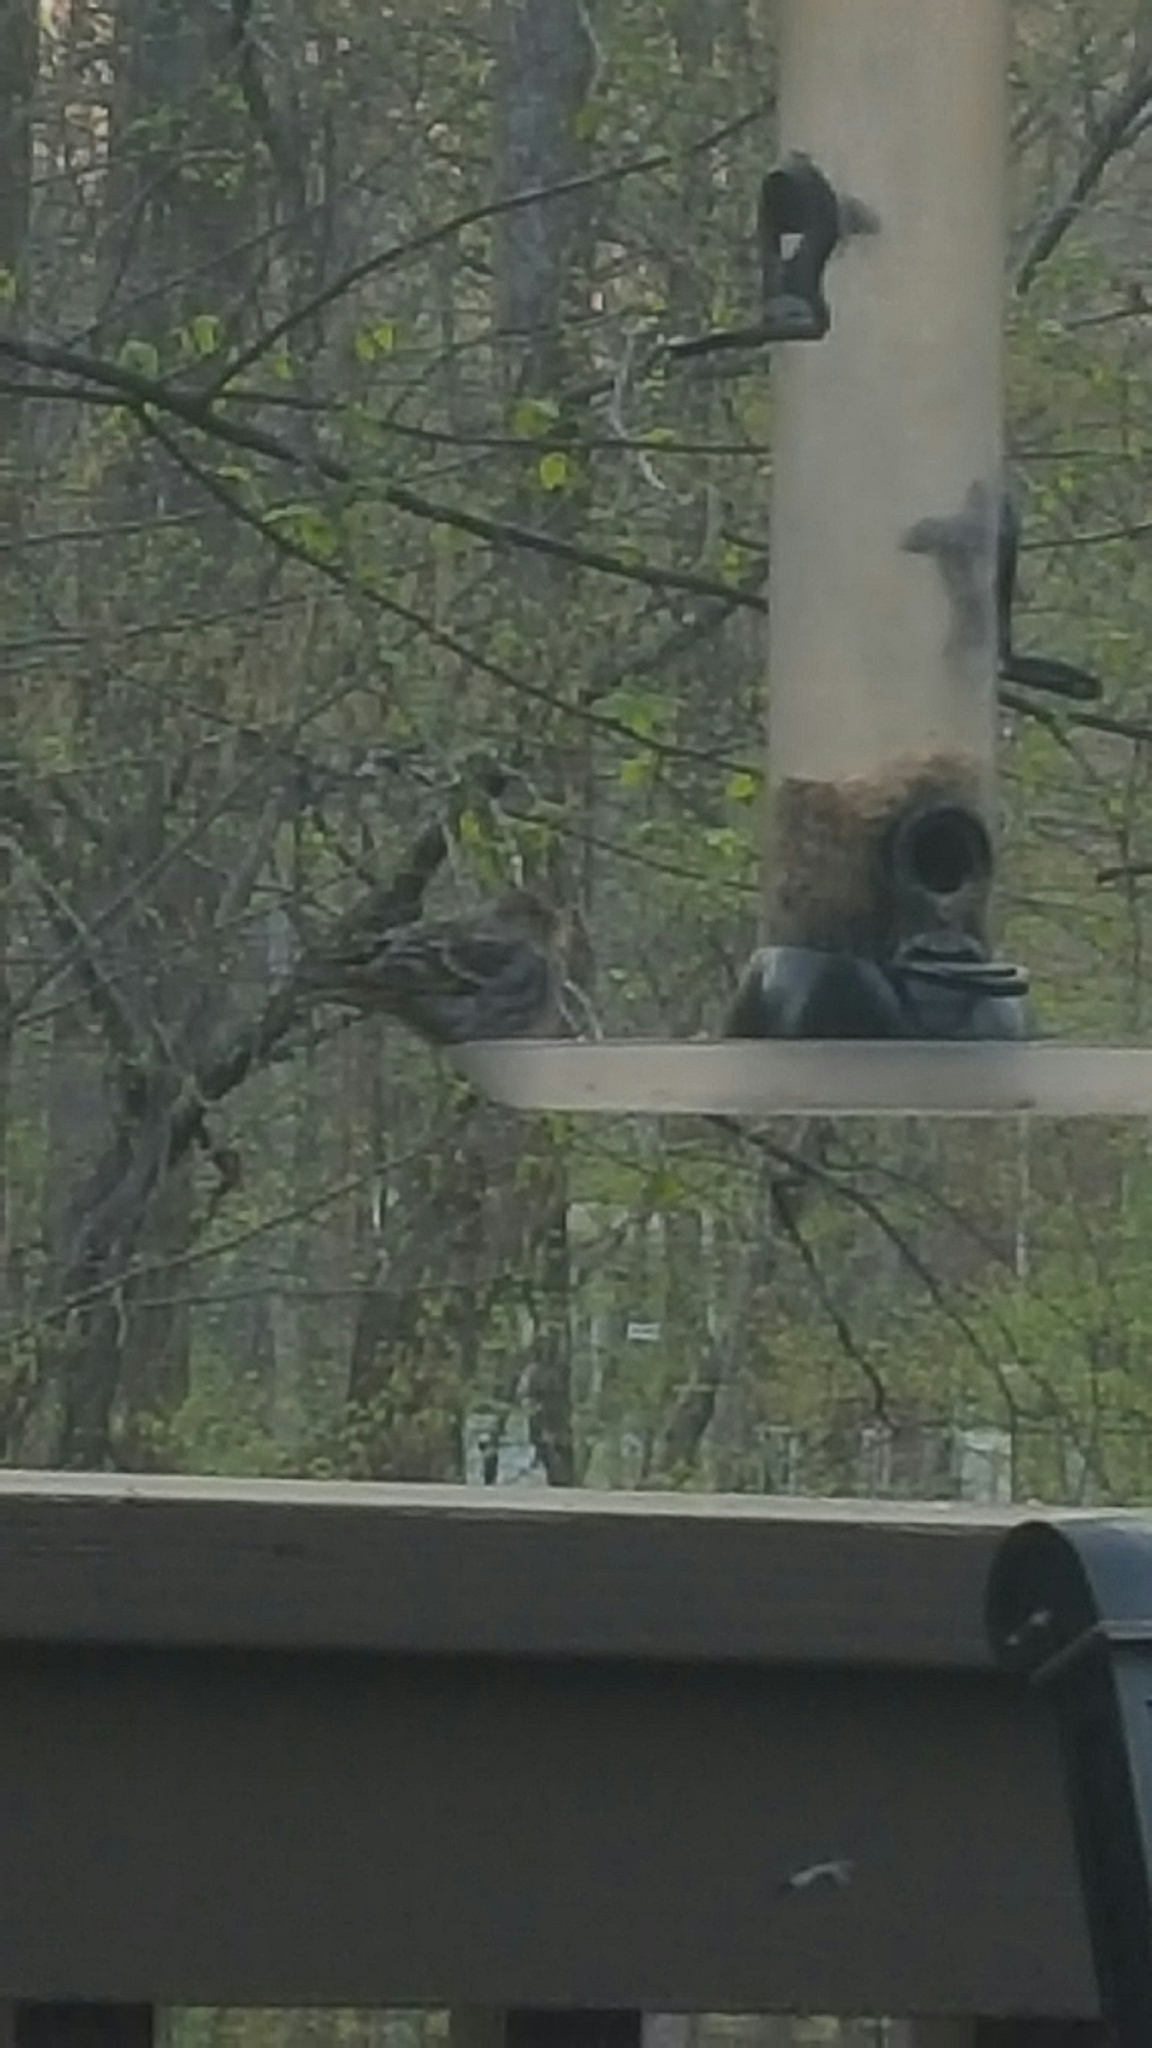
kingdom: Animalia
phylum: Chordata
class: Aves
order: Passeriformes
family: Fringillidae
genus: Haemorhous
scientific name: Haemorhous mexicanus
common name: House finch
